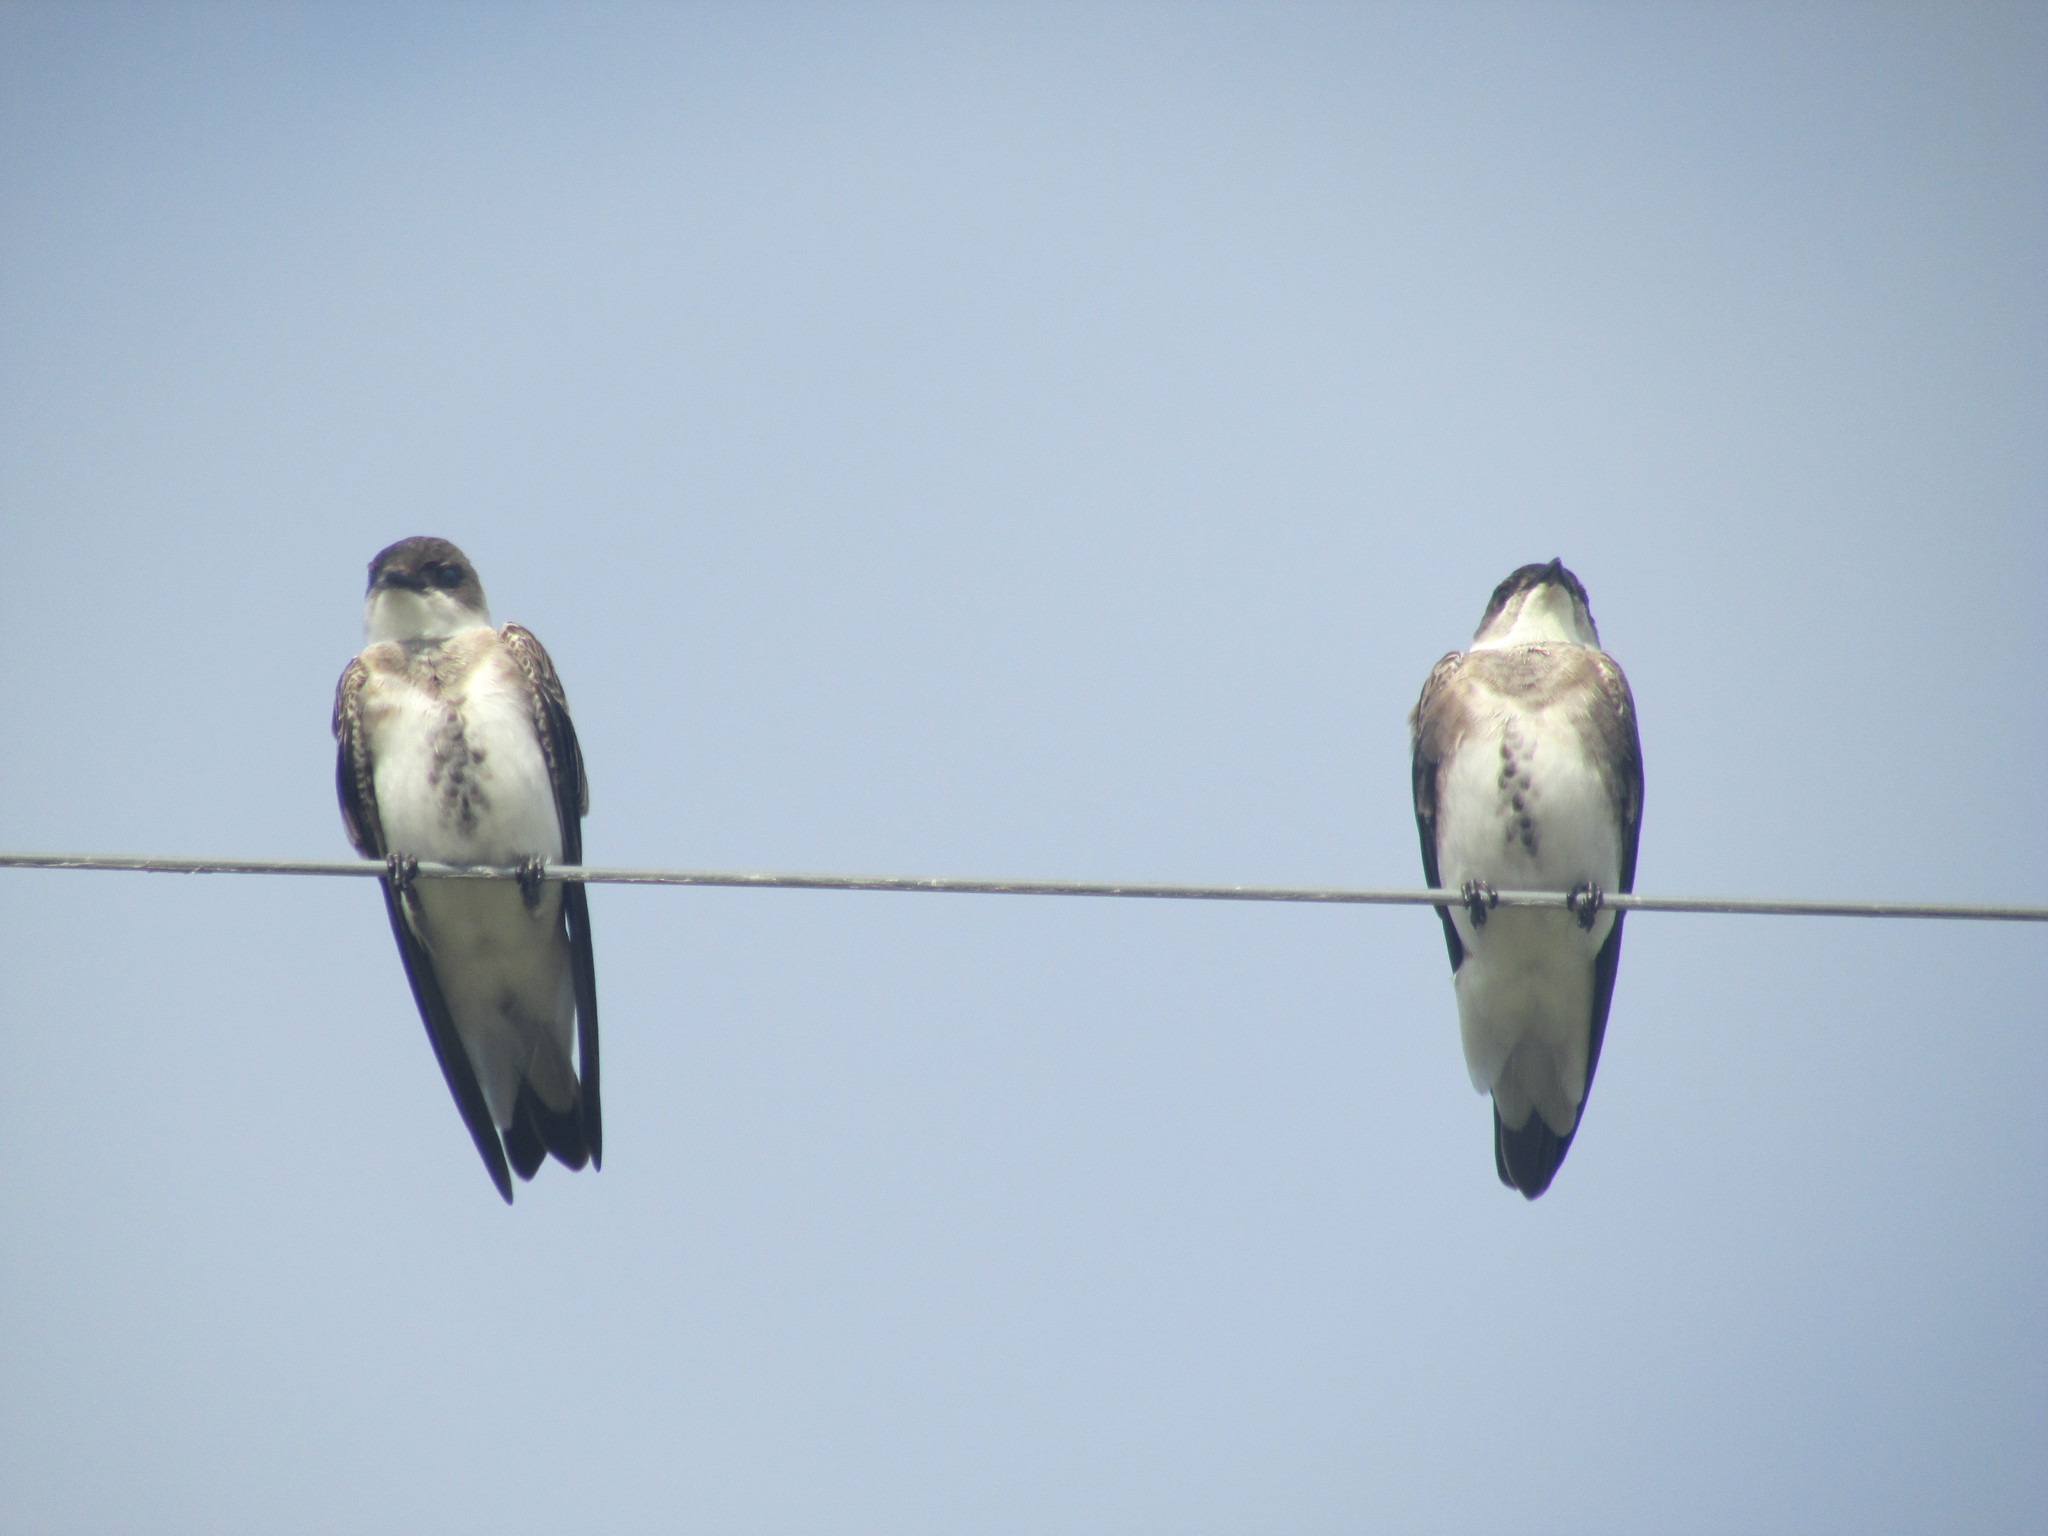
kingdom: Animalia
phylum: Chordata
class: Aves
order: Passeriformes
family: Hirundinidae
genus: Progne
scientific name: Progne tapera
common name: Brown-chested martin
